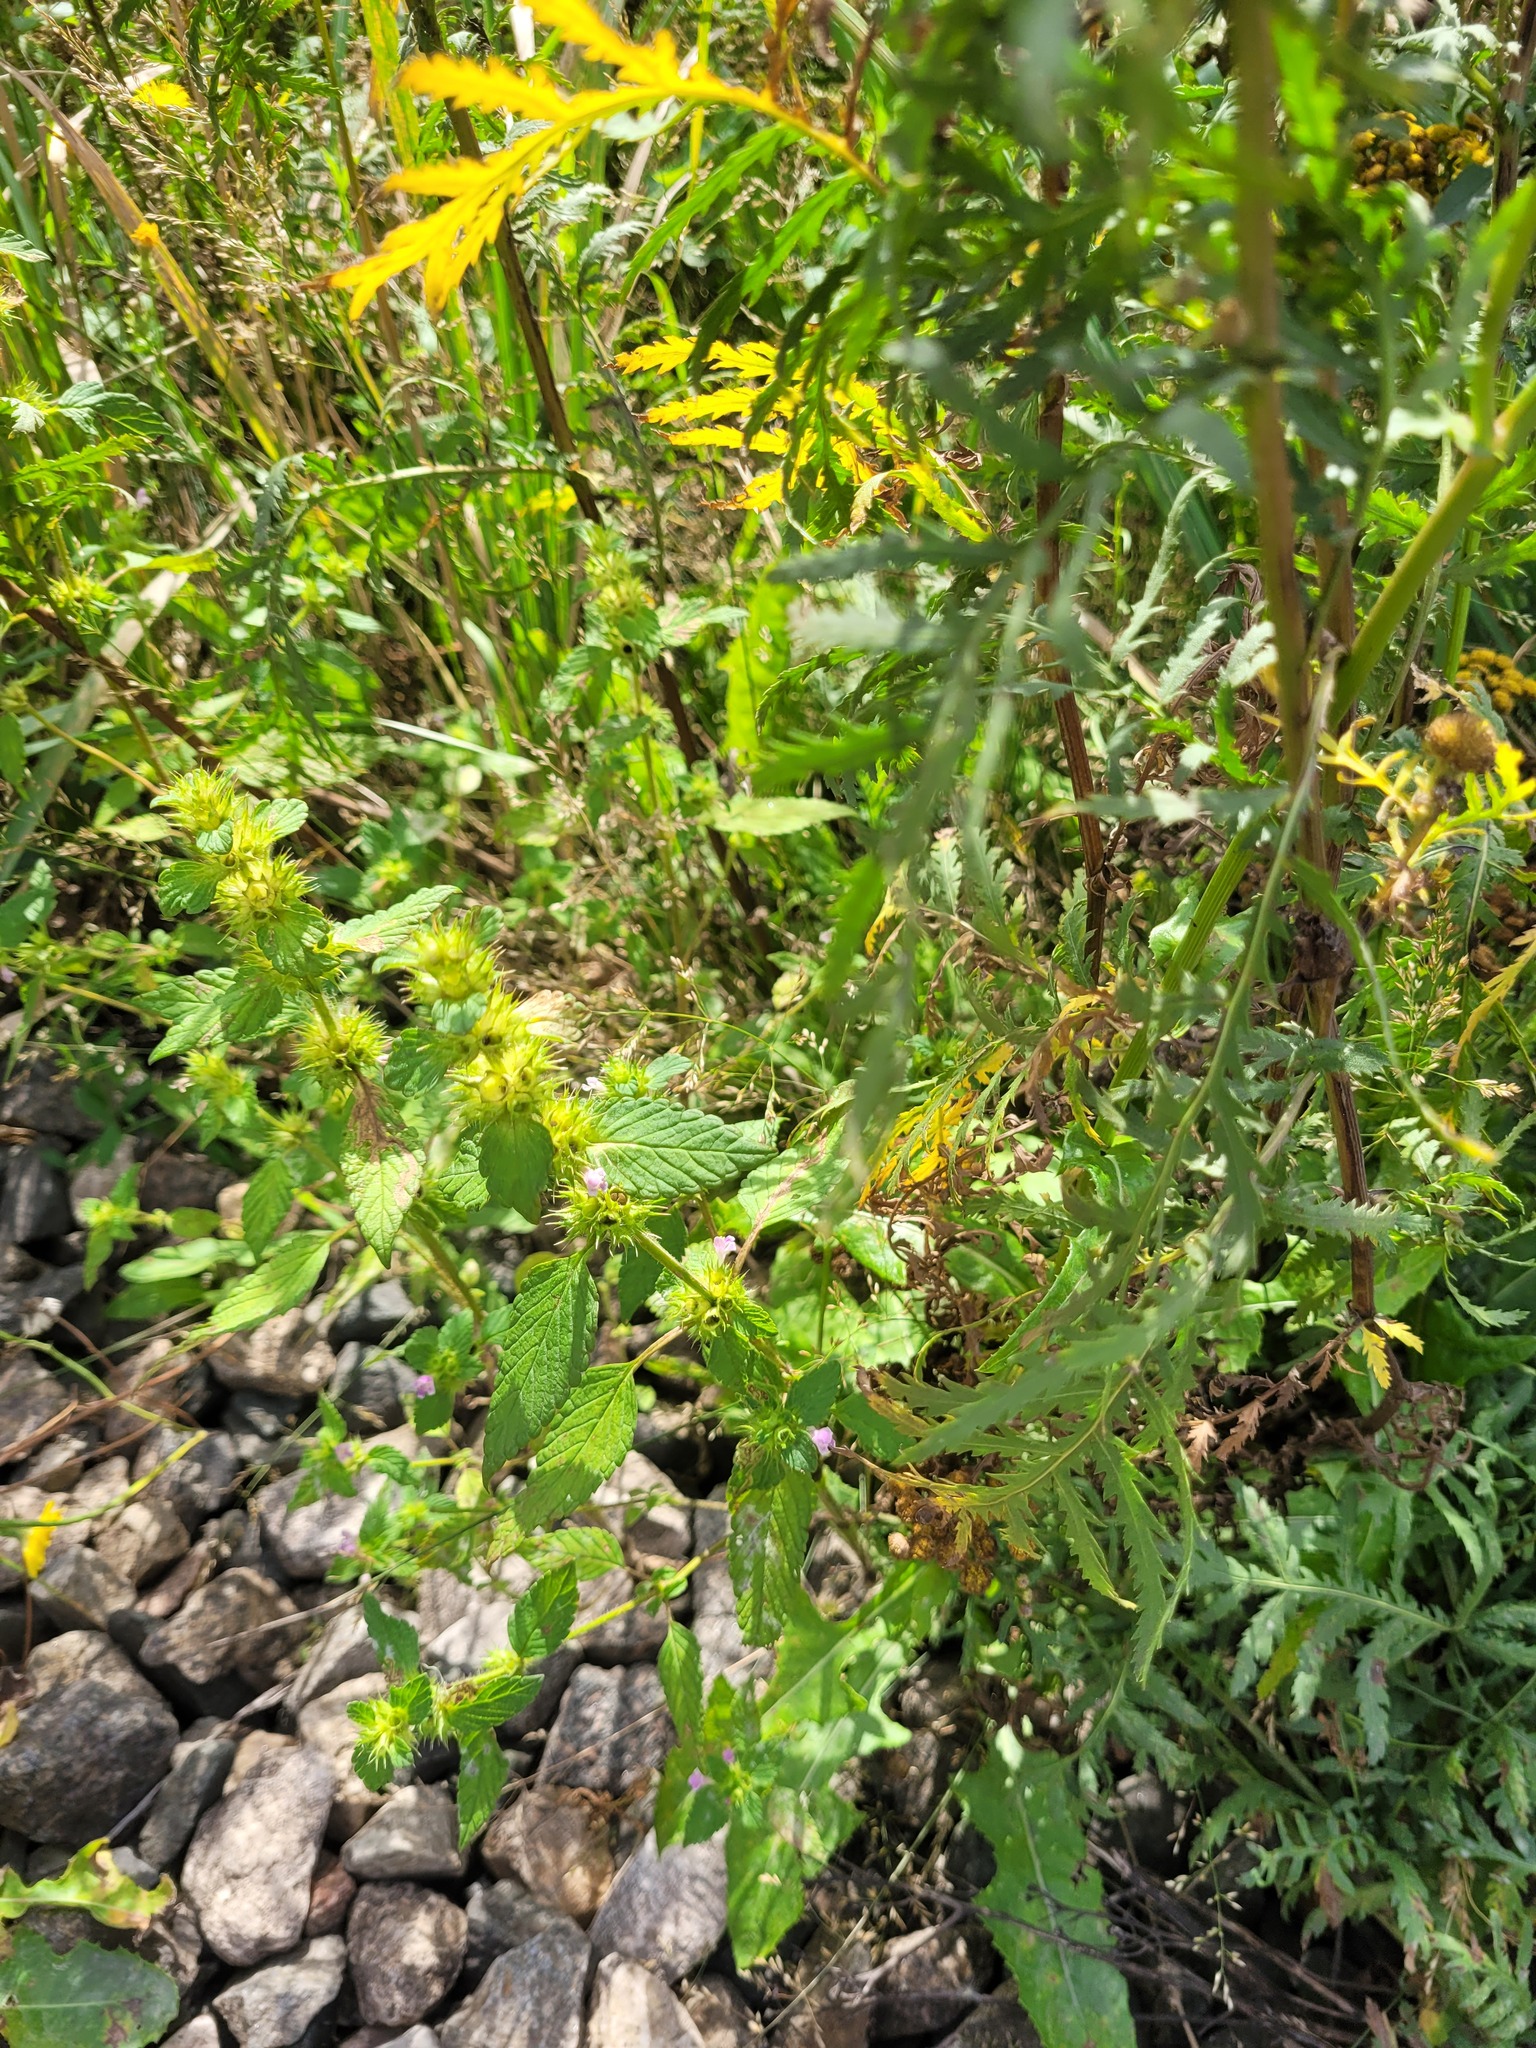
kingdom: Plantae
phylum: Tracheophyta
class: Magnoliopsida
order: Lamiales
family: Lamiaceae
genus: Galeopsis
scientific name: Galeopsis bifida
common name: Bifid hemp-nettle
